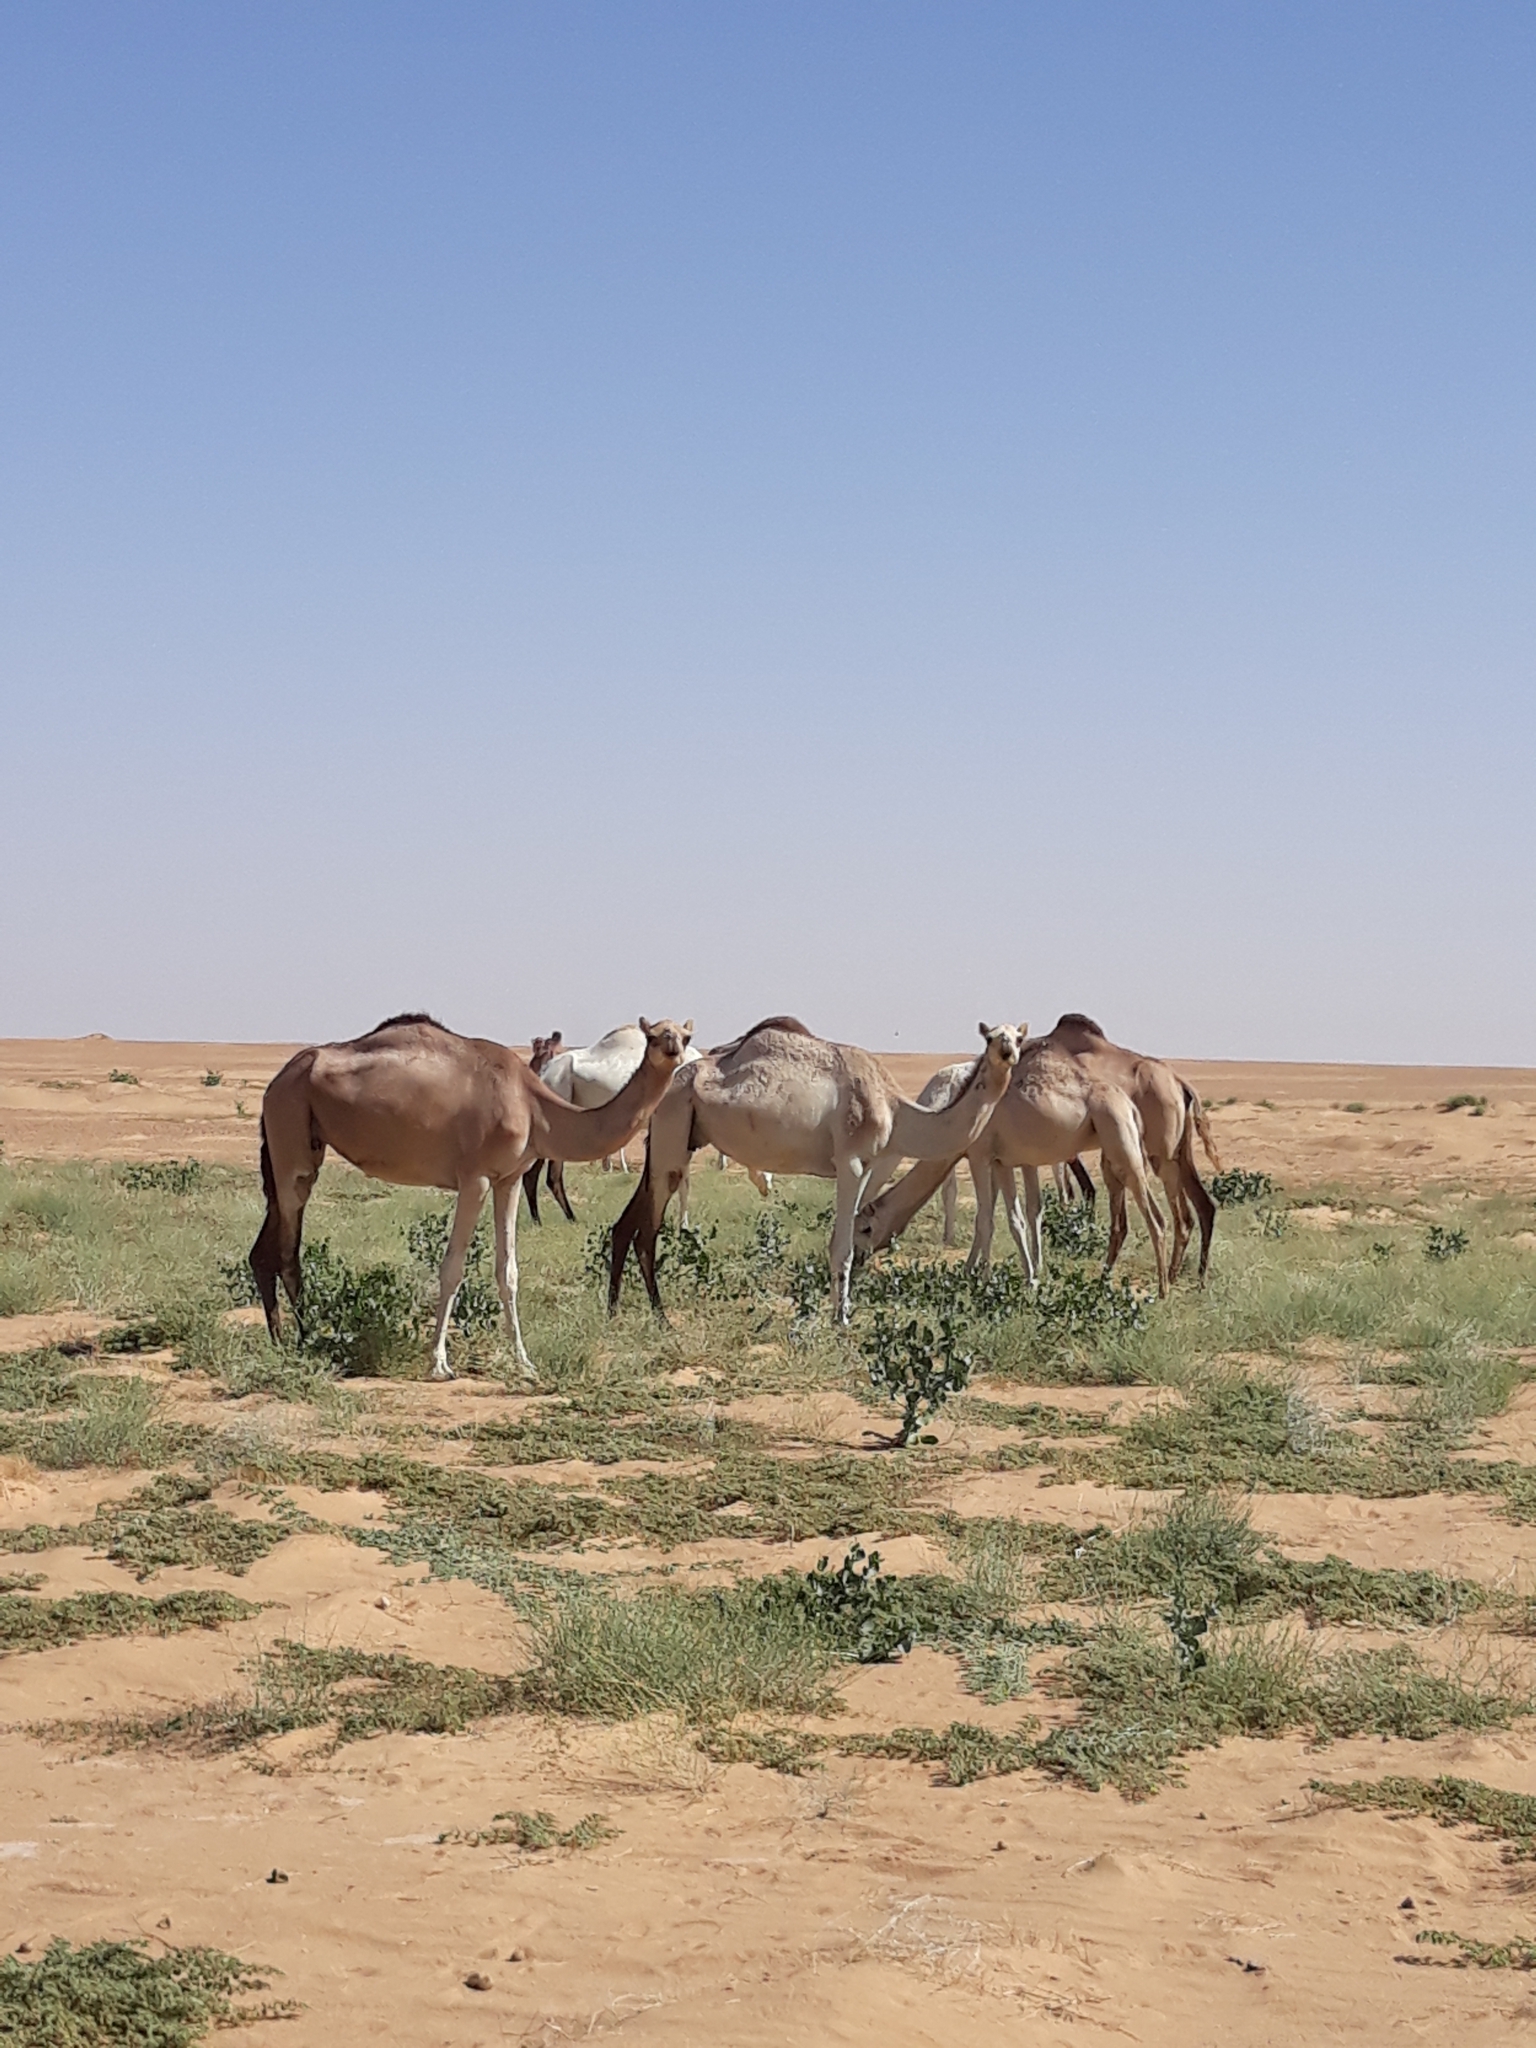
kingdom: Animalia
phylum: Chordata
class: Mammalia
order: Artiodactyla
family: Camelidae
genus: Camelus
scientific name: Camelus dromedarius
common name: One-humped camel
